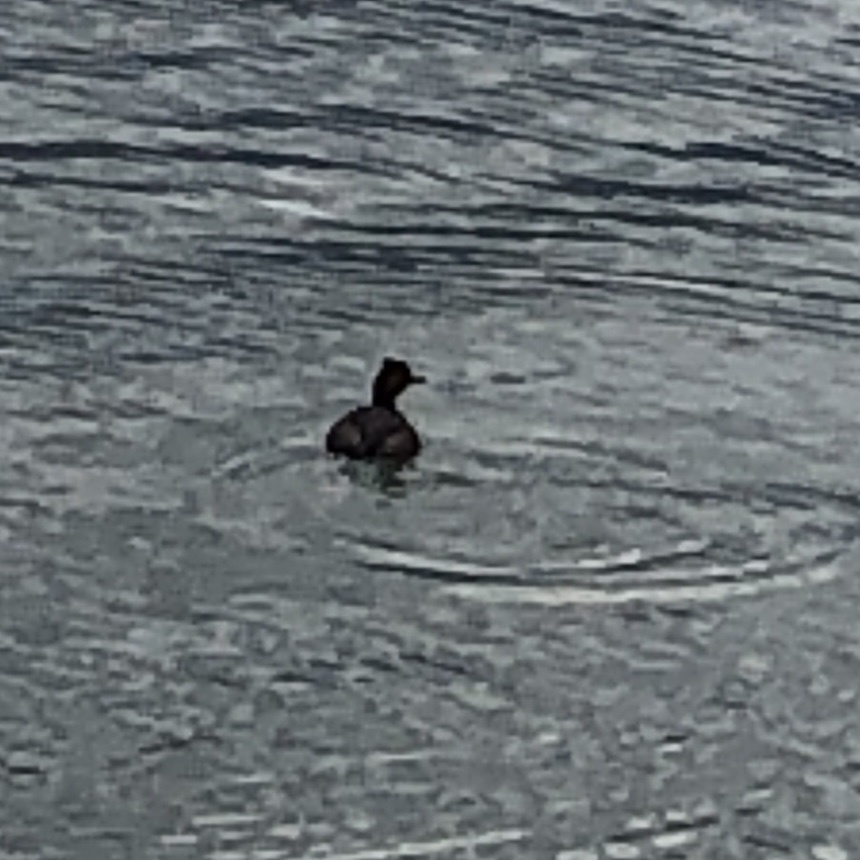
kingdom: Animalia
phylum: Chordata
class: Aves
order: Podicipediformes
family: Podicipedidae
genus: Podiceps
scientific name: Podiceps nigricollis
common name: Black-necked grebe
